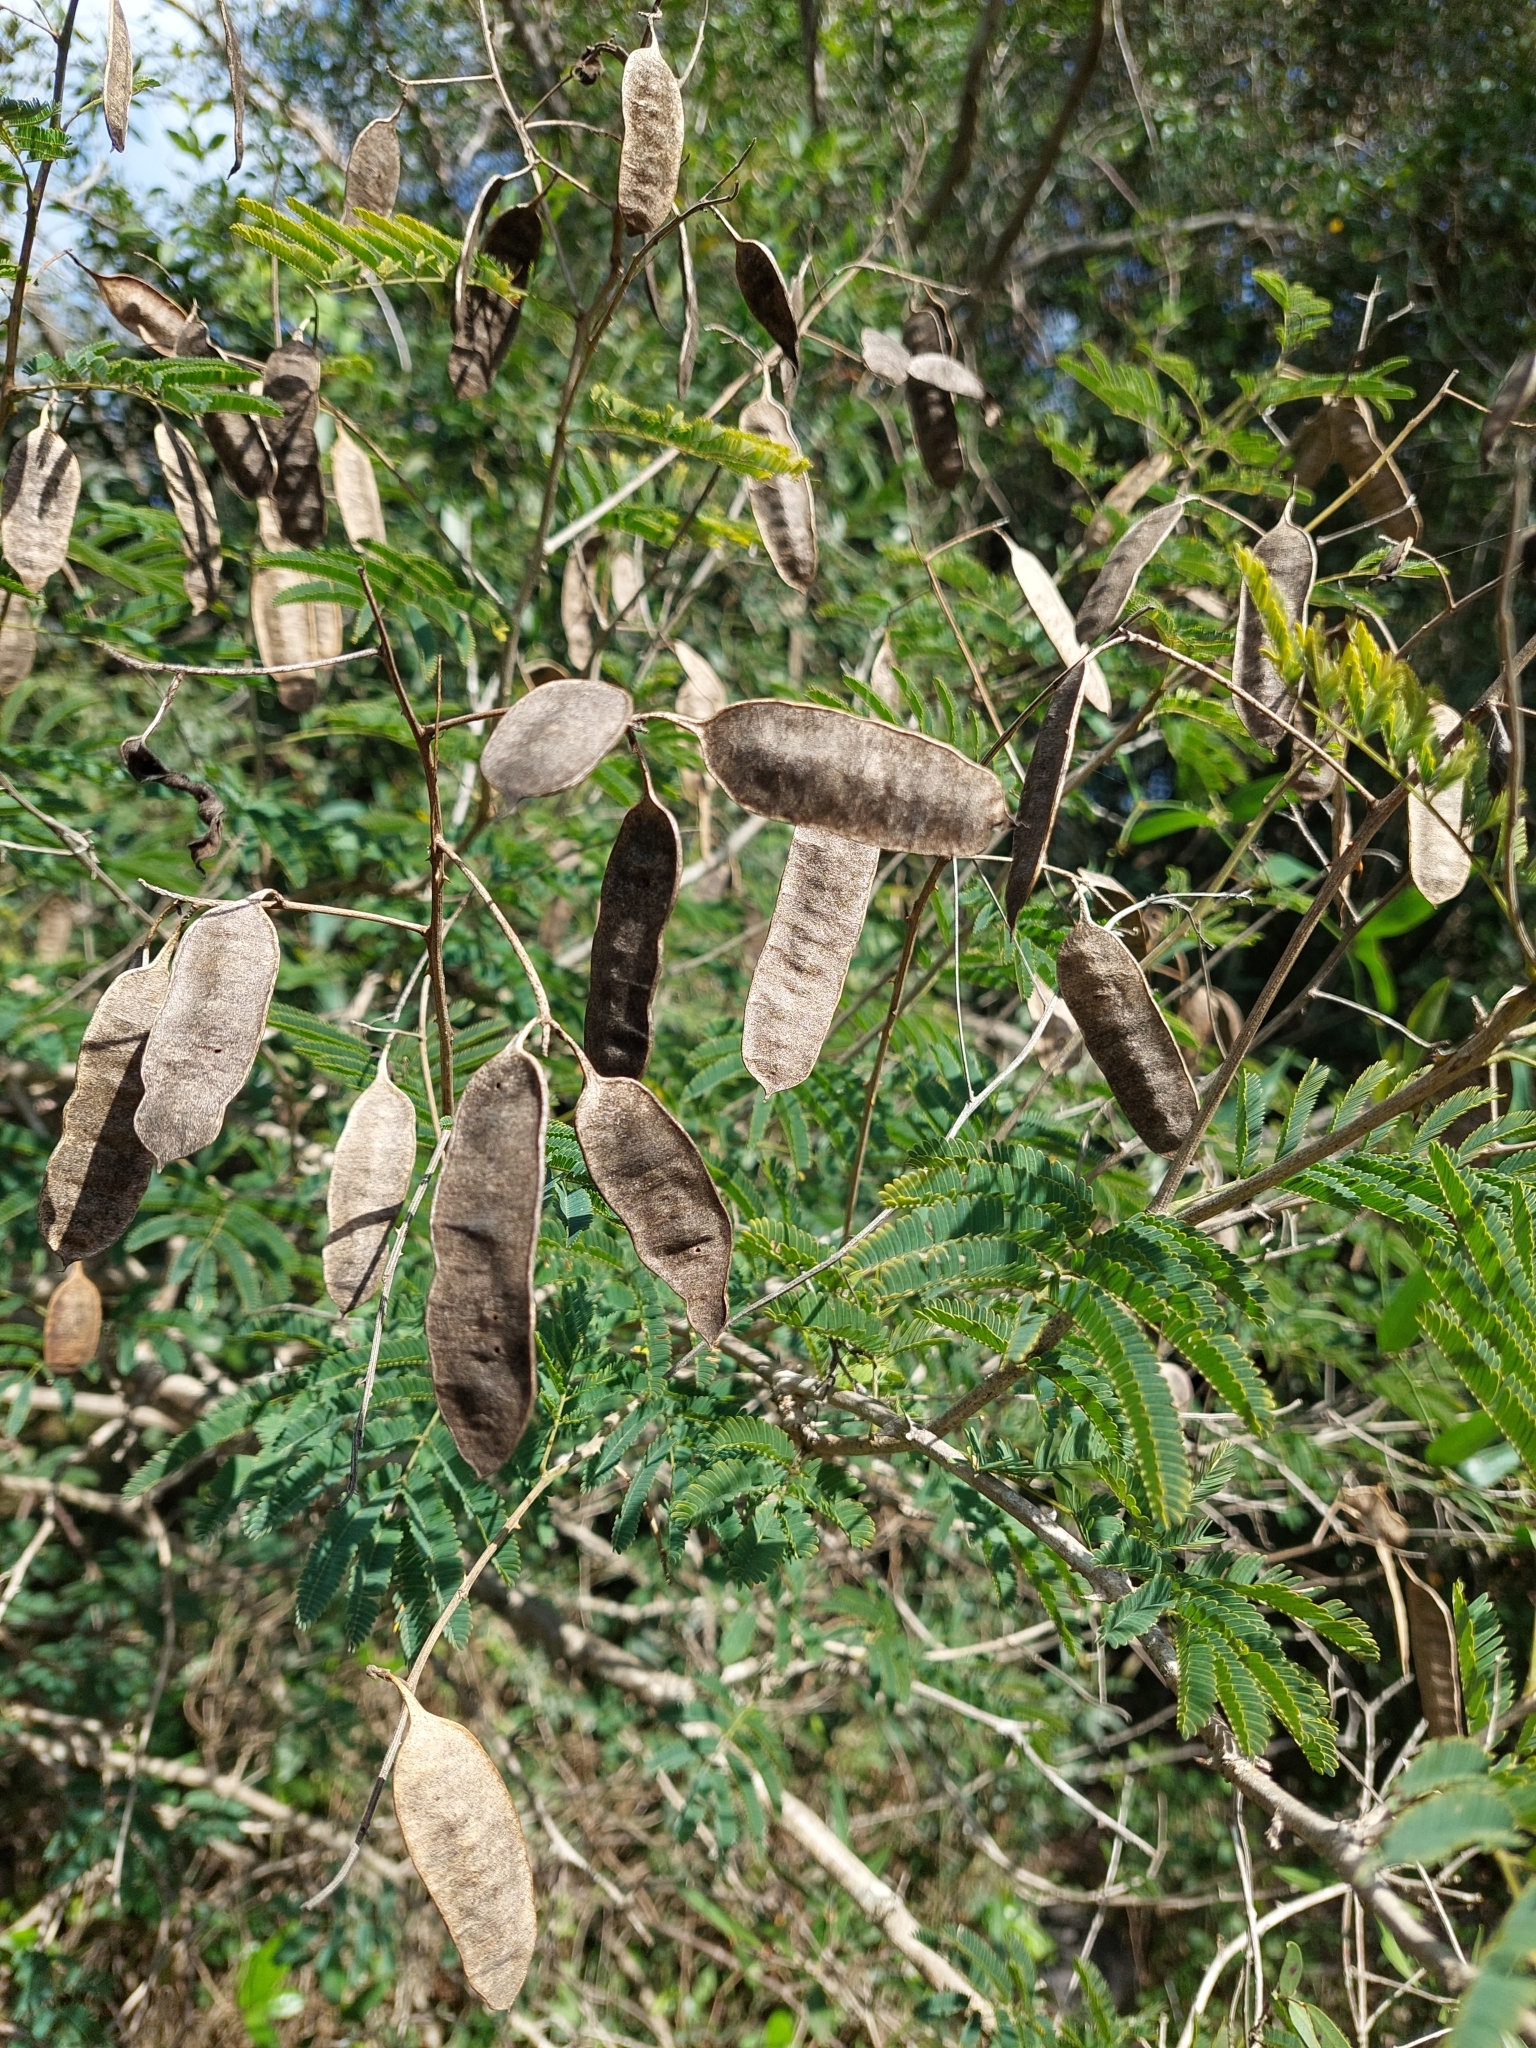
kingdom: Plantae
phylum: Tracheophyta
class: Magnoliopsida
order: Fabales
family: Fabaceae
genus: Senegalia
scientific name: Senegalia bonariensis
